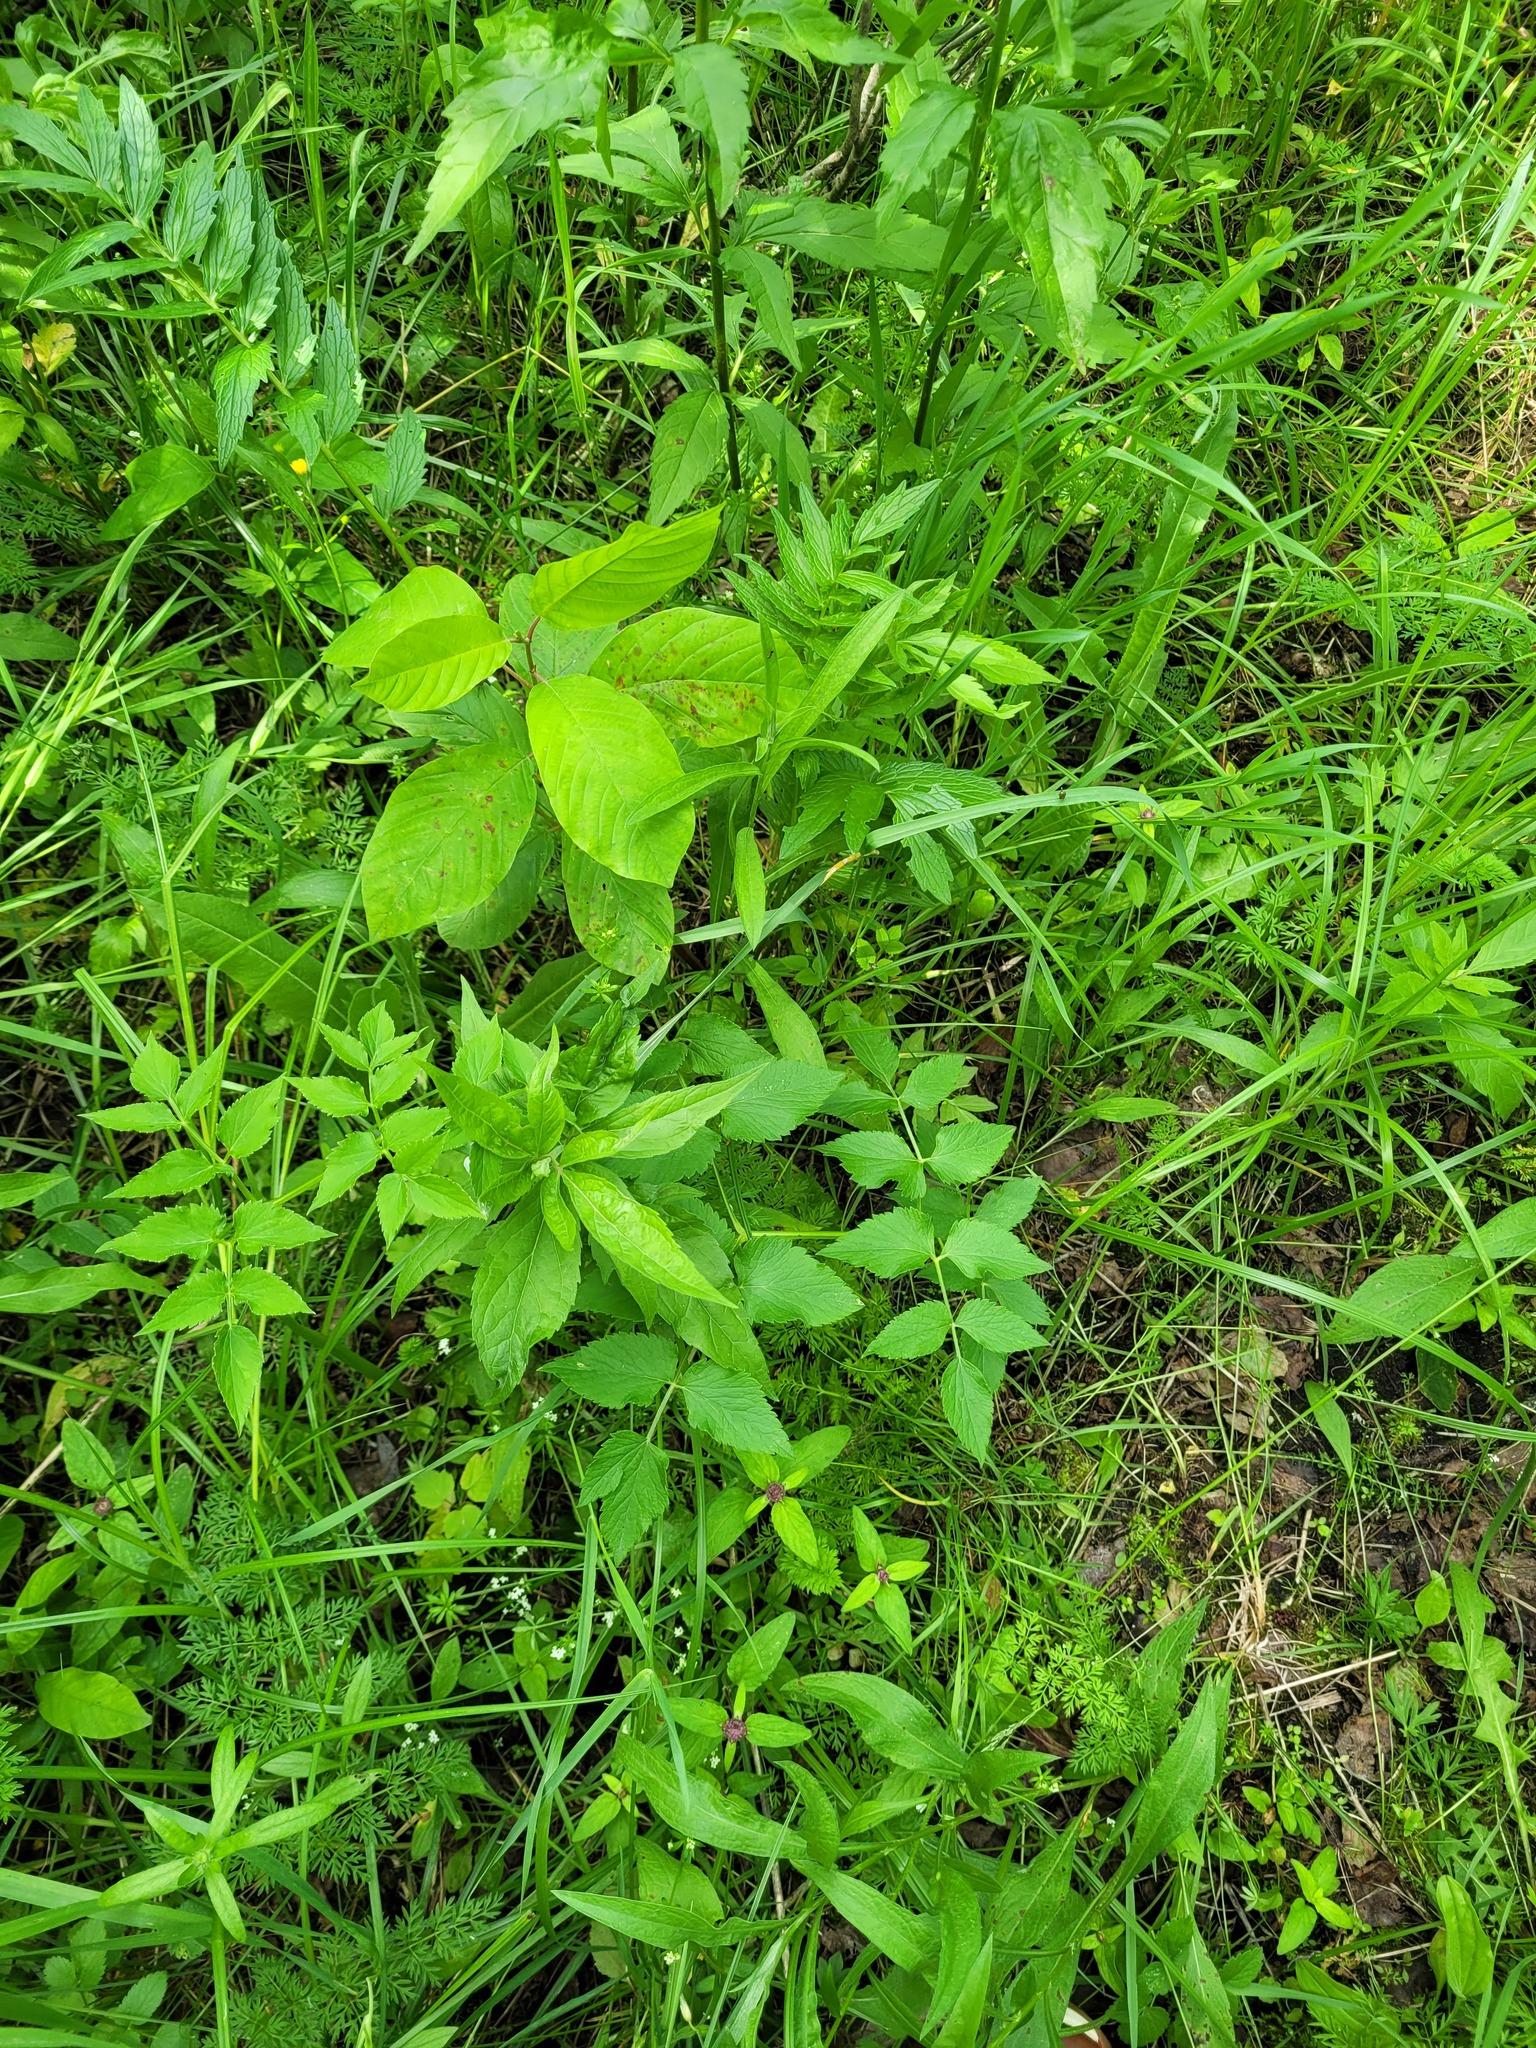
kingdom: Plantae
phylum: Tracheophyta
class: Magnoliopsida
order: Apiales
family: Apiaceae
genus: Ostericum
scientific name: Ostericum palustre
